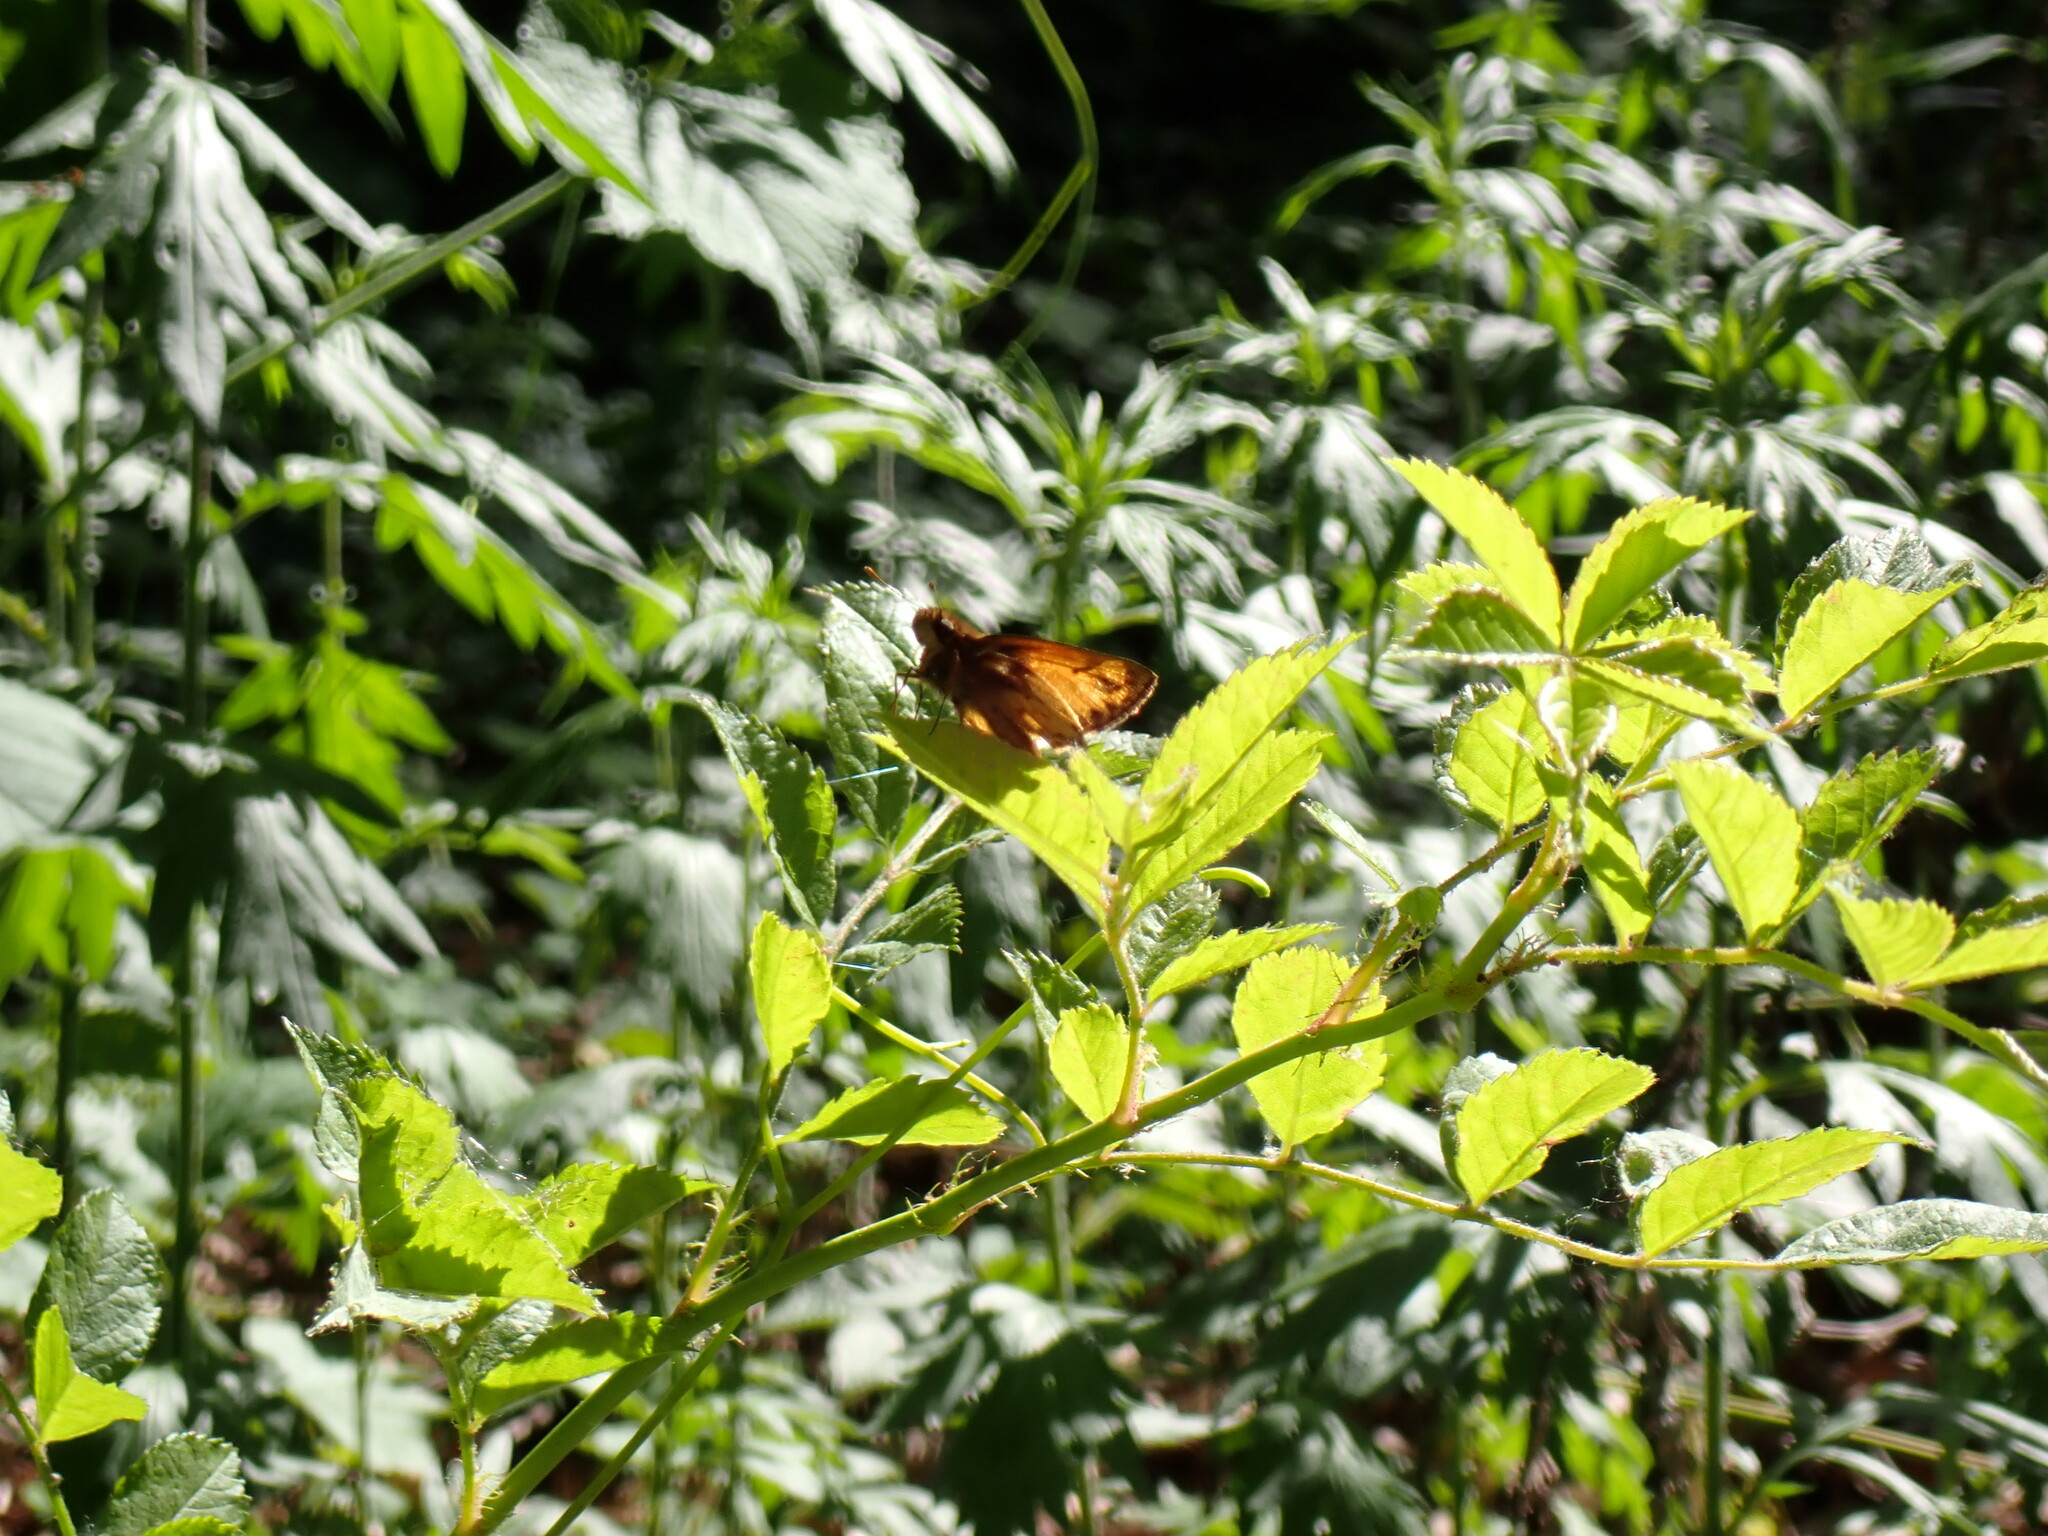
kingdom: Animalia
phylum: Arthropoda
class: Insecta
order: Lepidoptera
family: Hesperiidae
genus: Lon
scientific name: Lon zabulon
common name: Zabulon skipper
